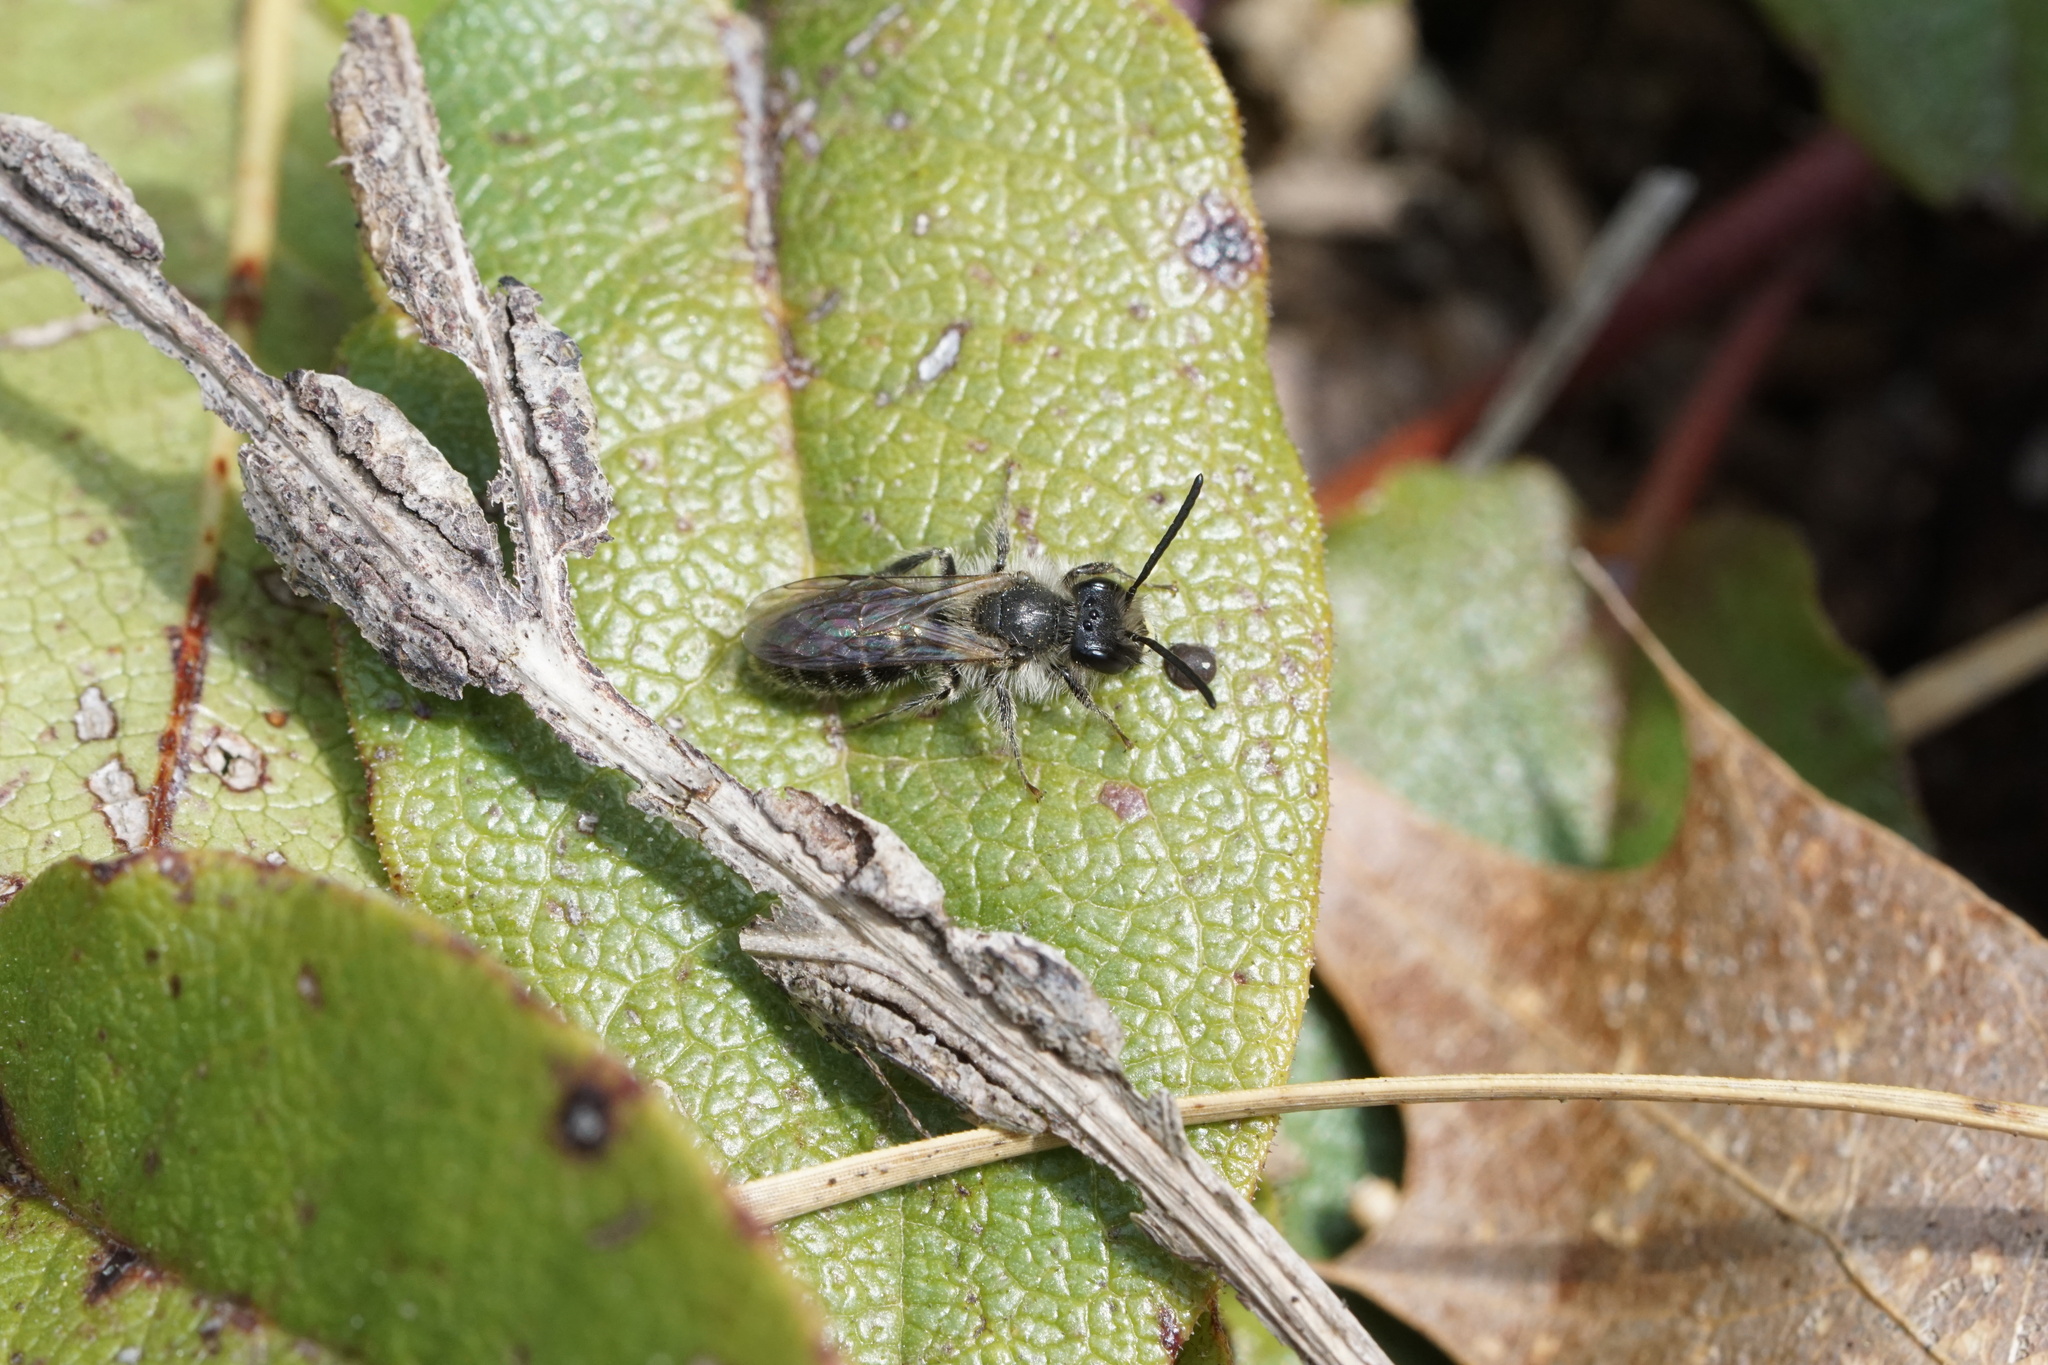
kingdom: Animalia
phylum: Arthropoda
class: Insecta
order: Hymenoptera
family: Andrenidae
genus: Andrena
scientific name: Andrena bradleyi
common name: Bradley's mining bee
